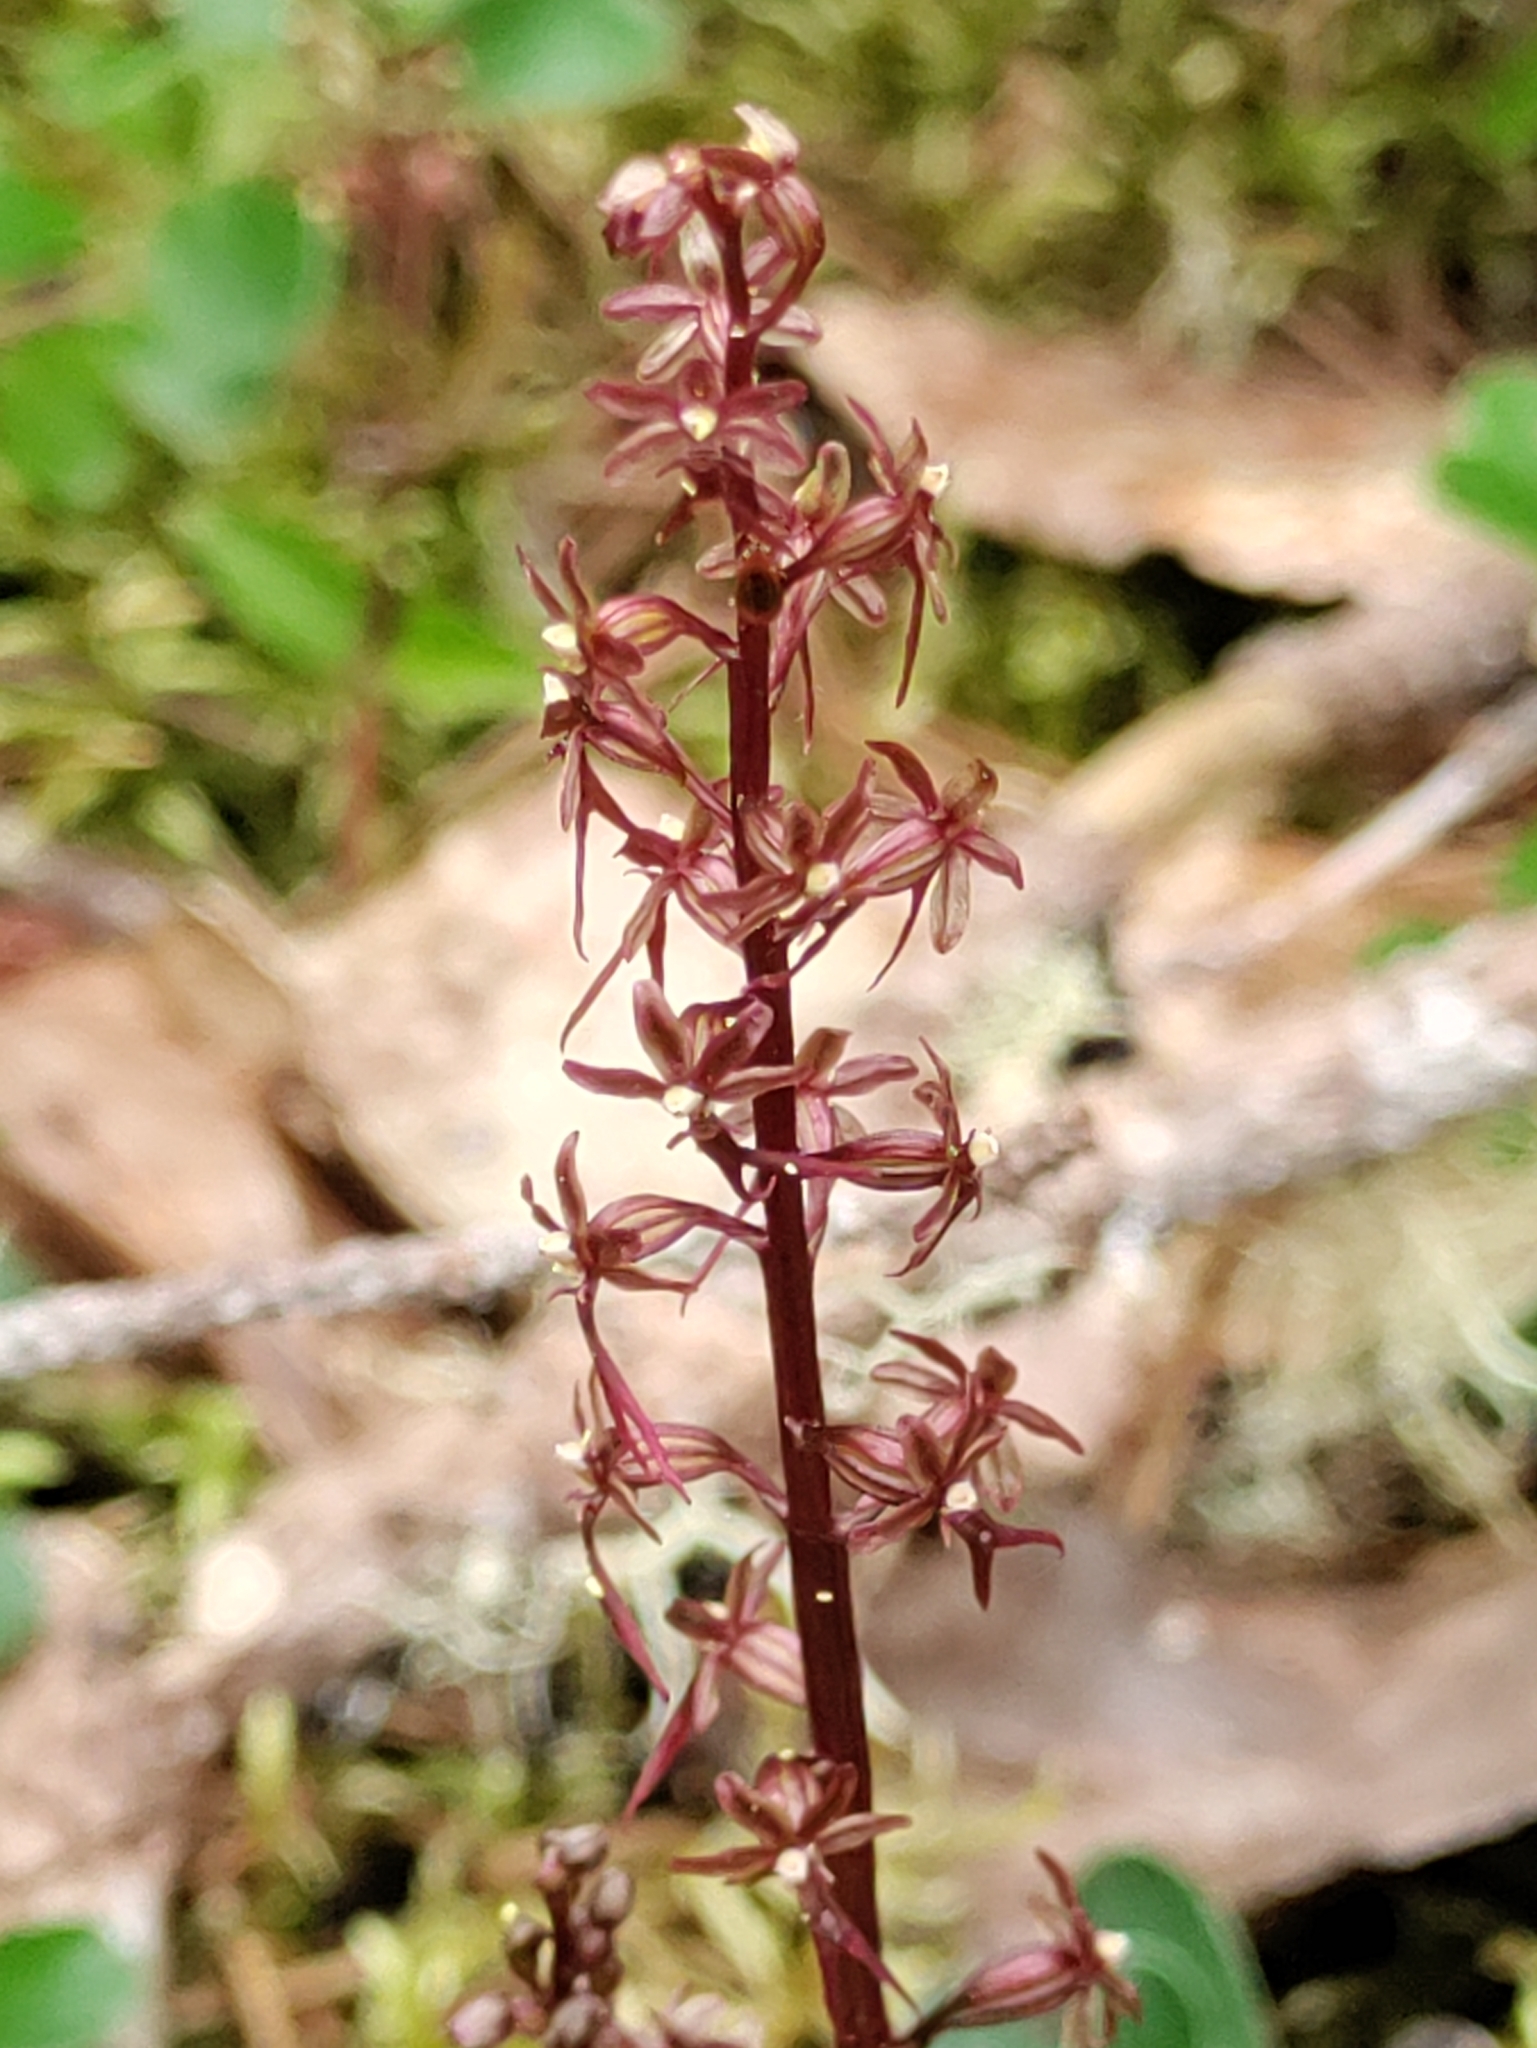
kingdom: Plantae
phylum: Tracheophyta
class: Liliopsida
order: Asparagales
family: Orchidaceae
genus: Neottia
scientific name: Neottia cordata
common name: Lesser twayblade
